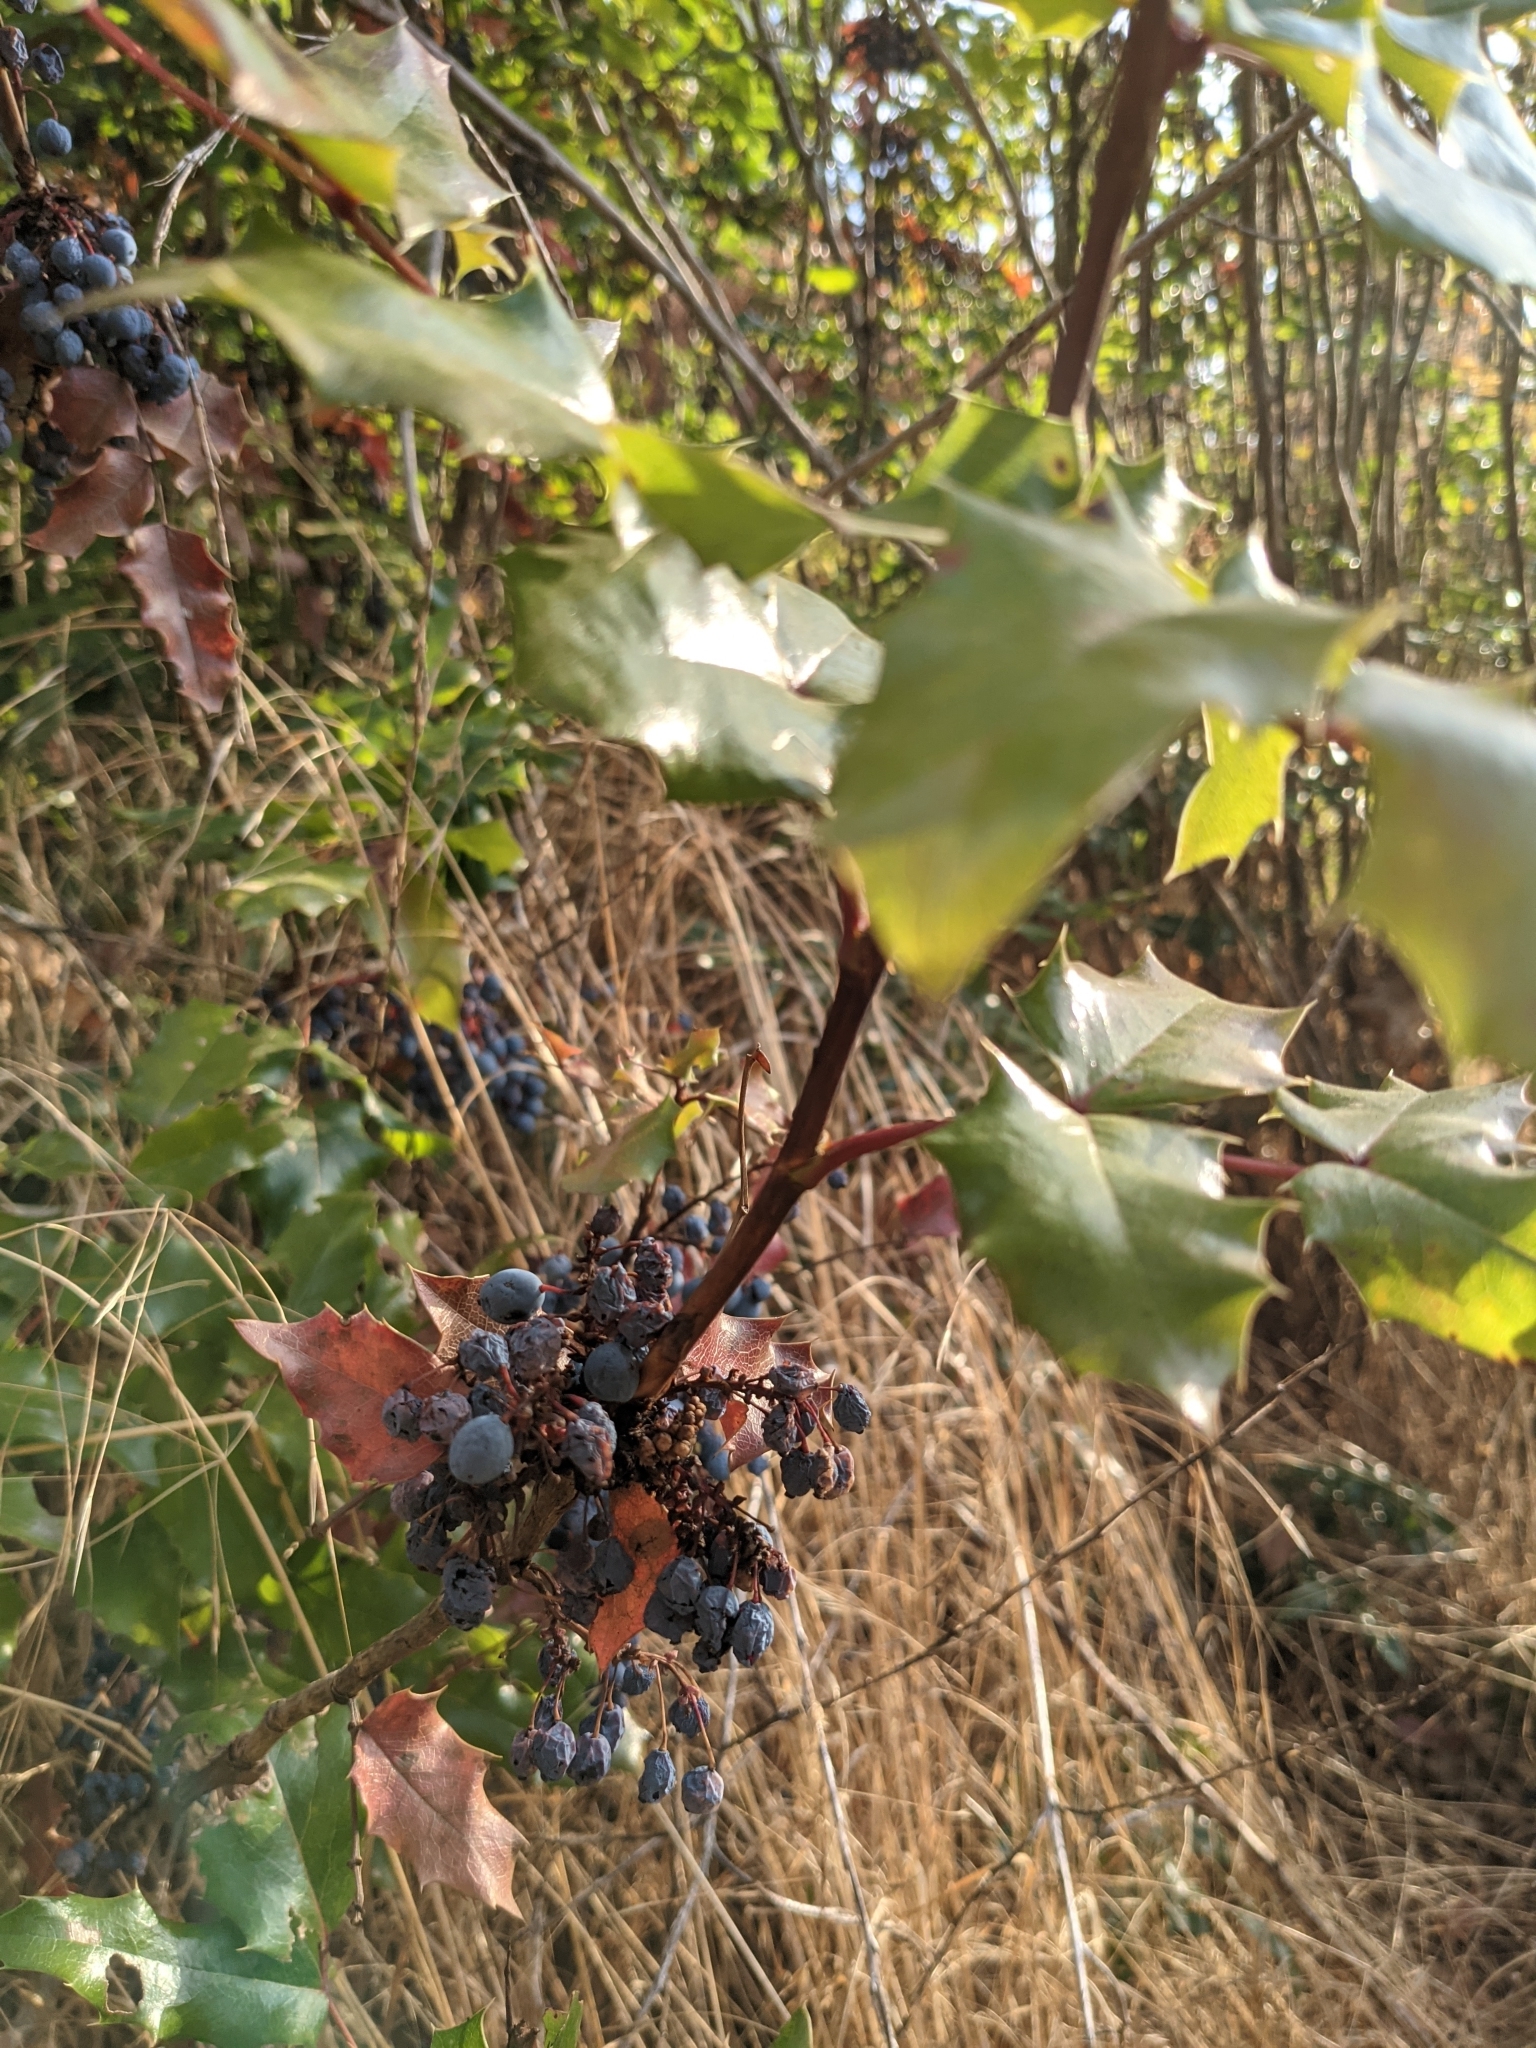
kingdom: Plantae
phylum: Tracheophyta
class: Magnoliopsida
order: Ranunculales
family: Berberidaceae
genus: Mahonia
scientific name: Mahonia aquifolium
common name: Oregon-grape
